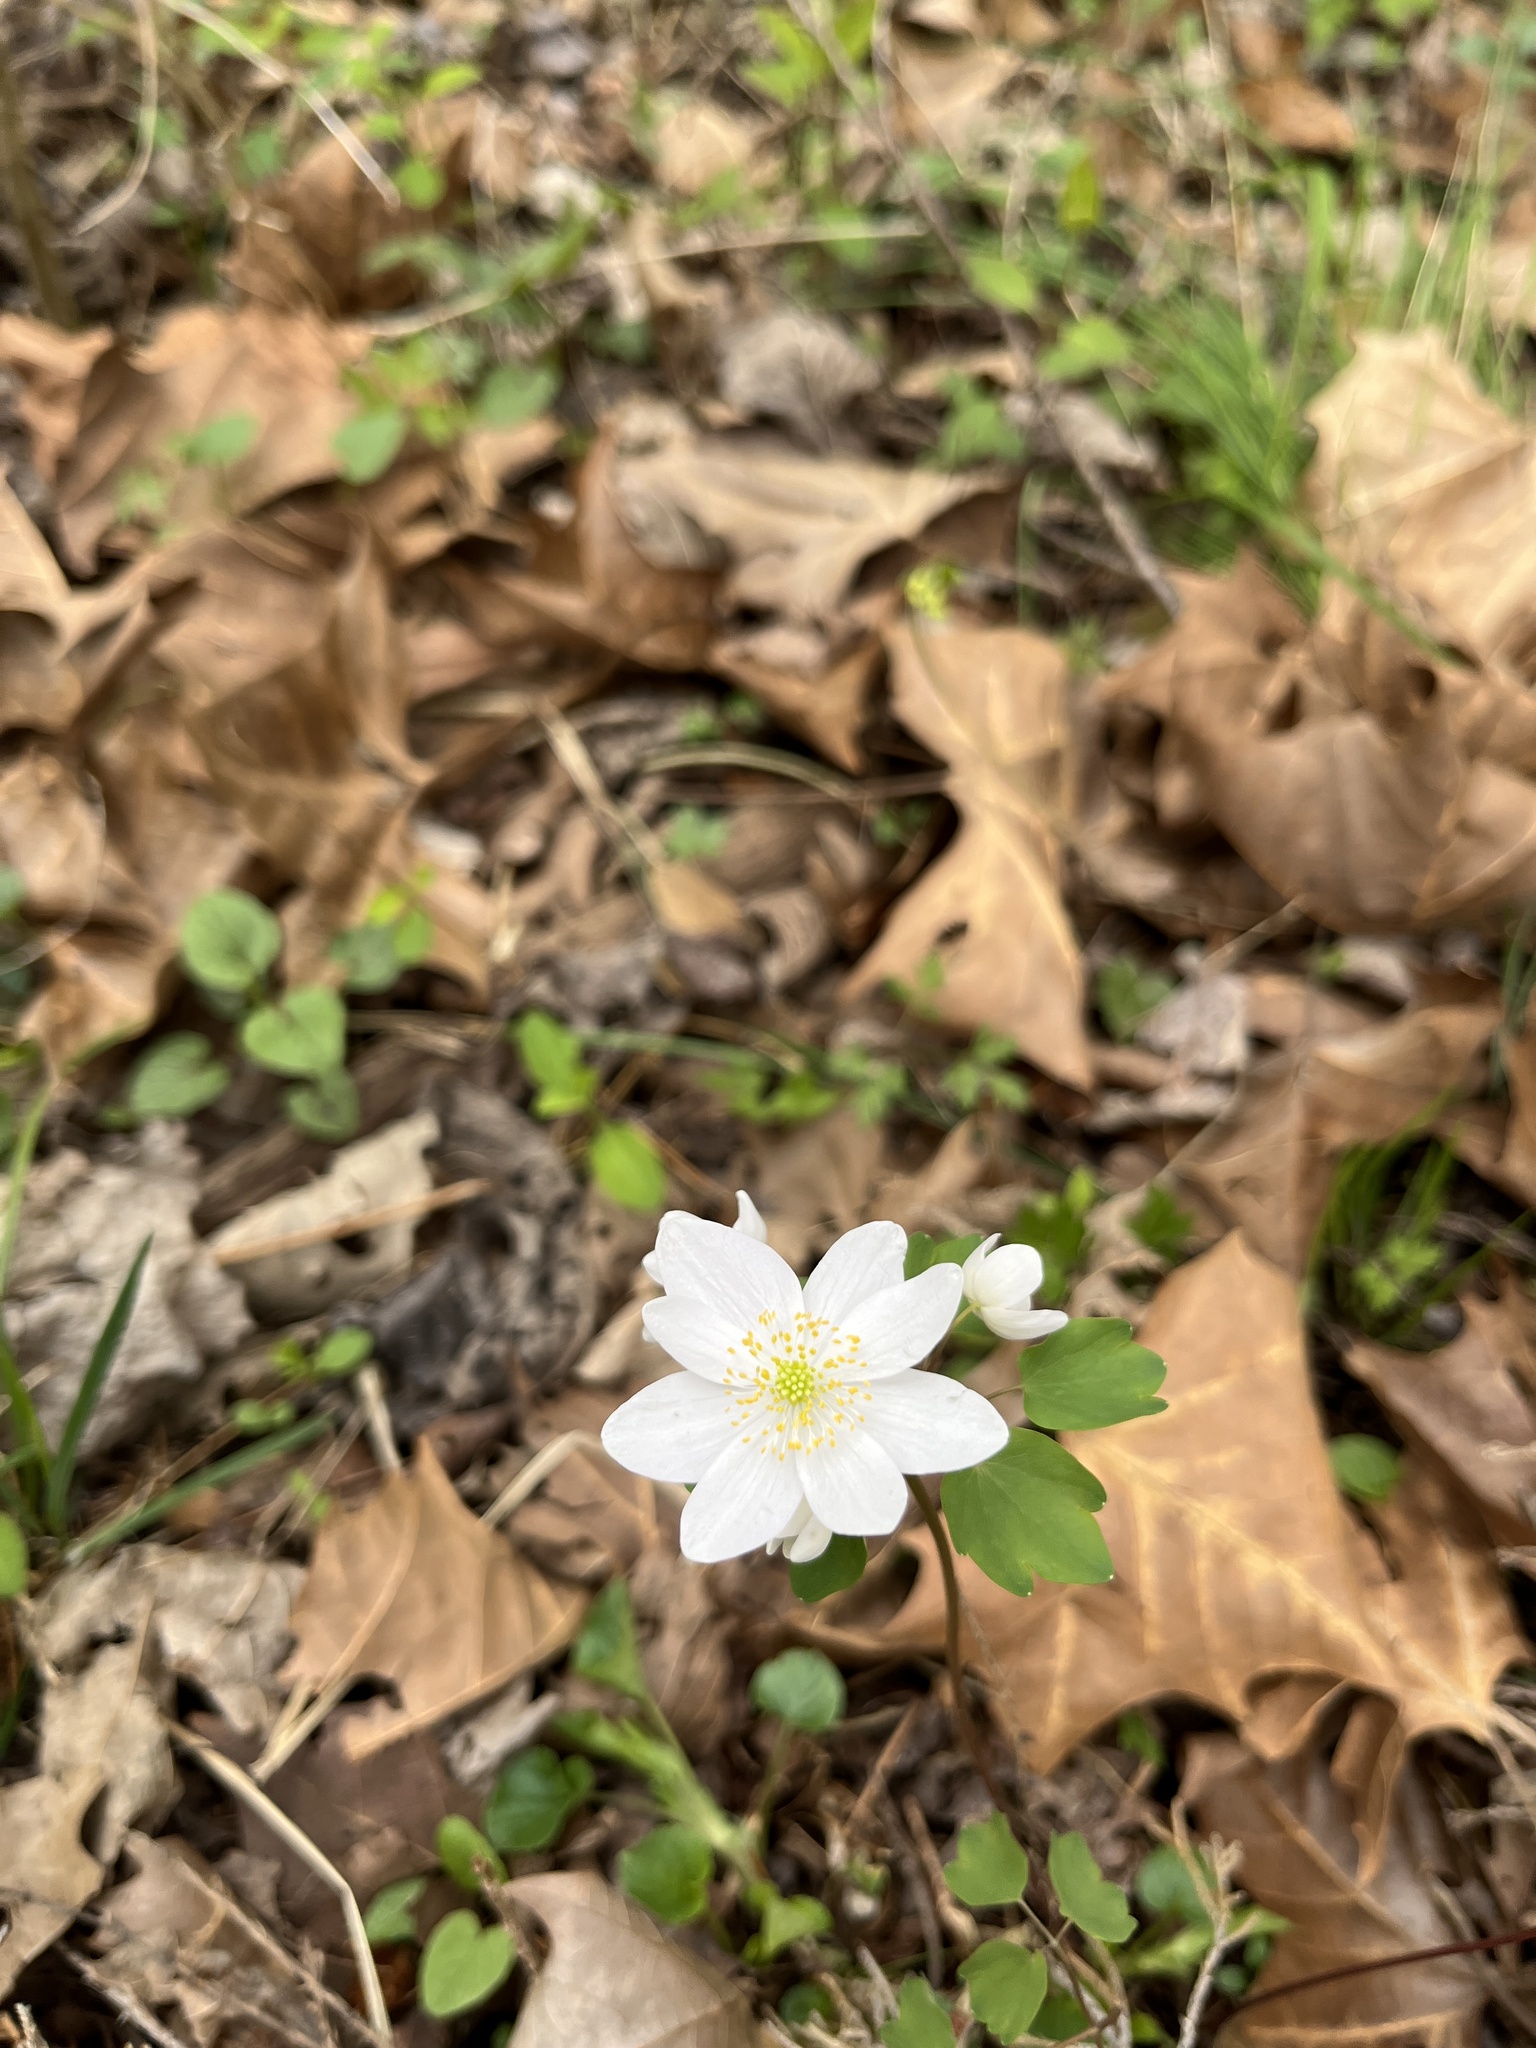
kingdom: Plantae
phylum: Tracheophyta
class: Magnoliopsida
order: Ranunculales
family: Ranunculaceae
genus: Thalictrum
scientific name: Thalictrum thalictroides
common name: Rue-anemone
